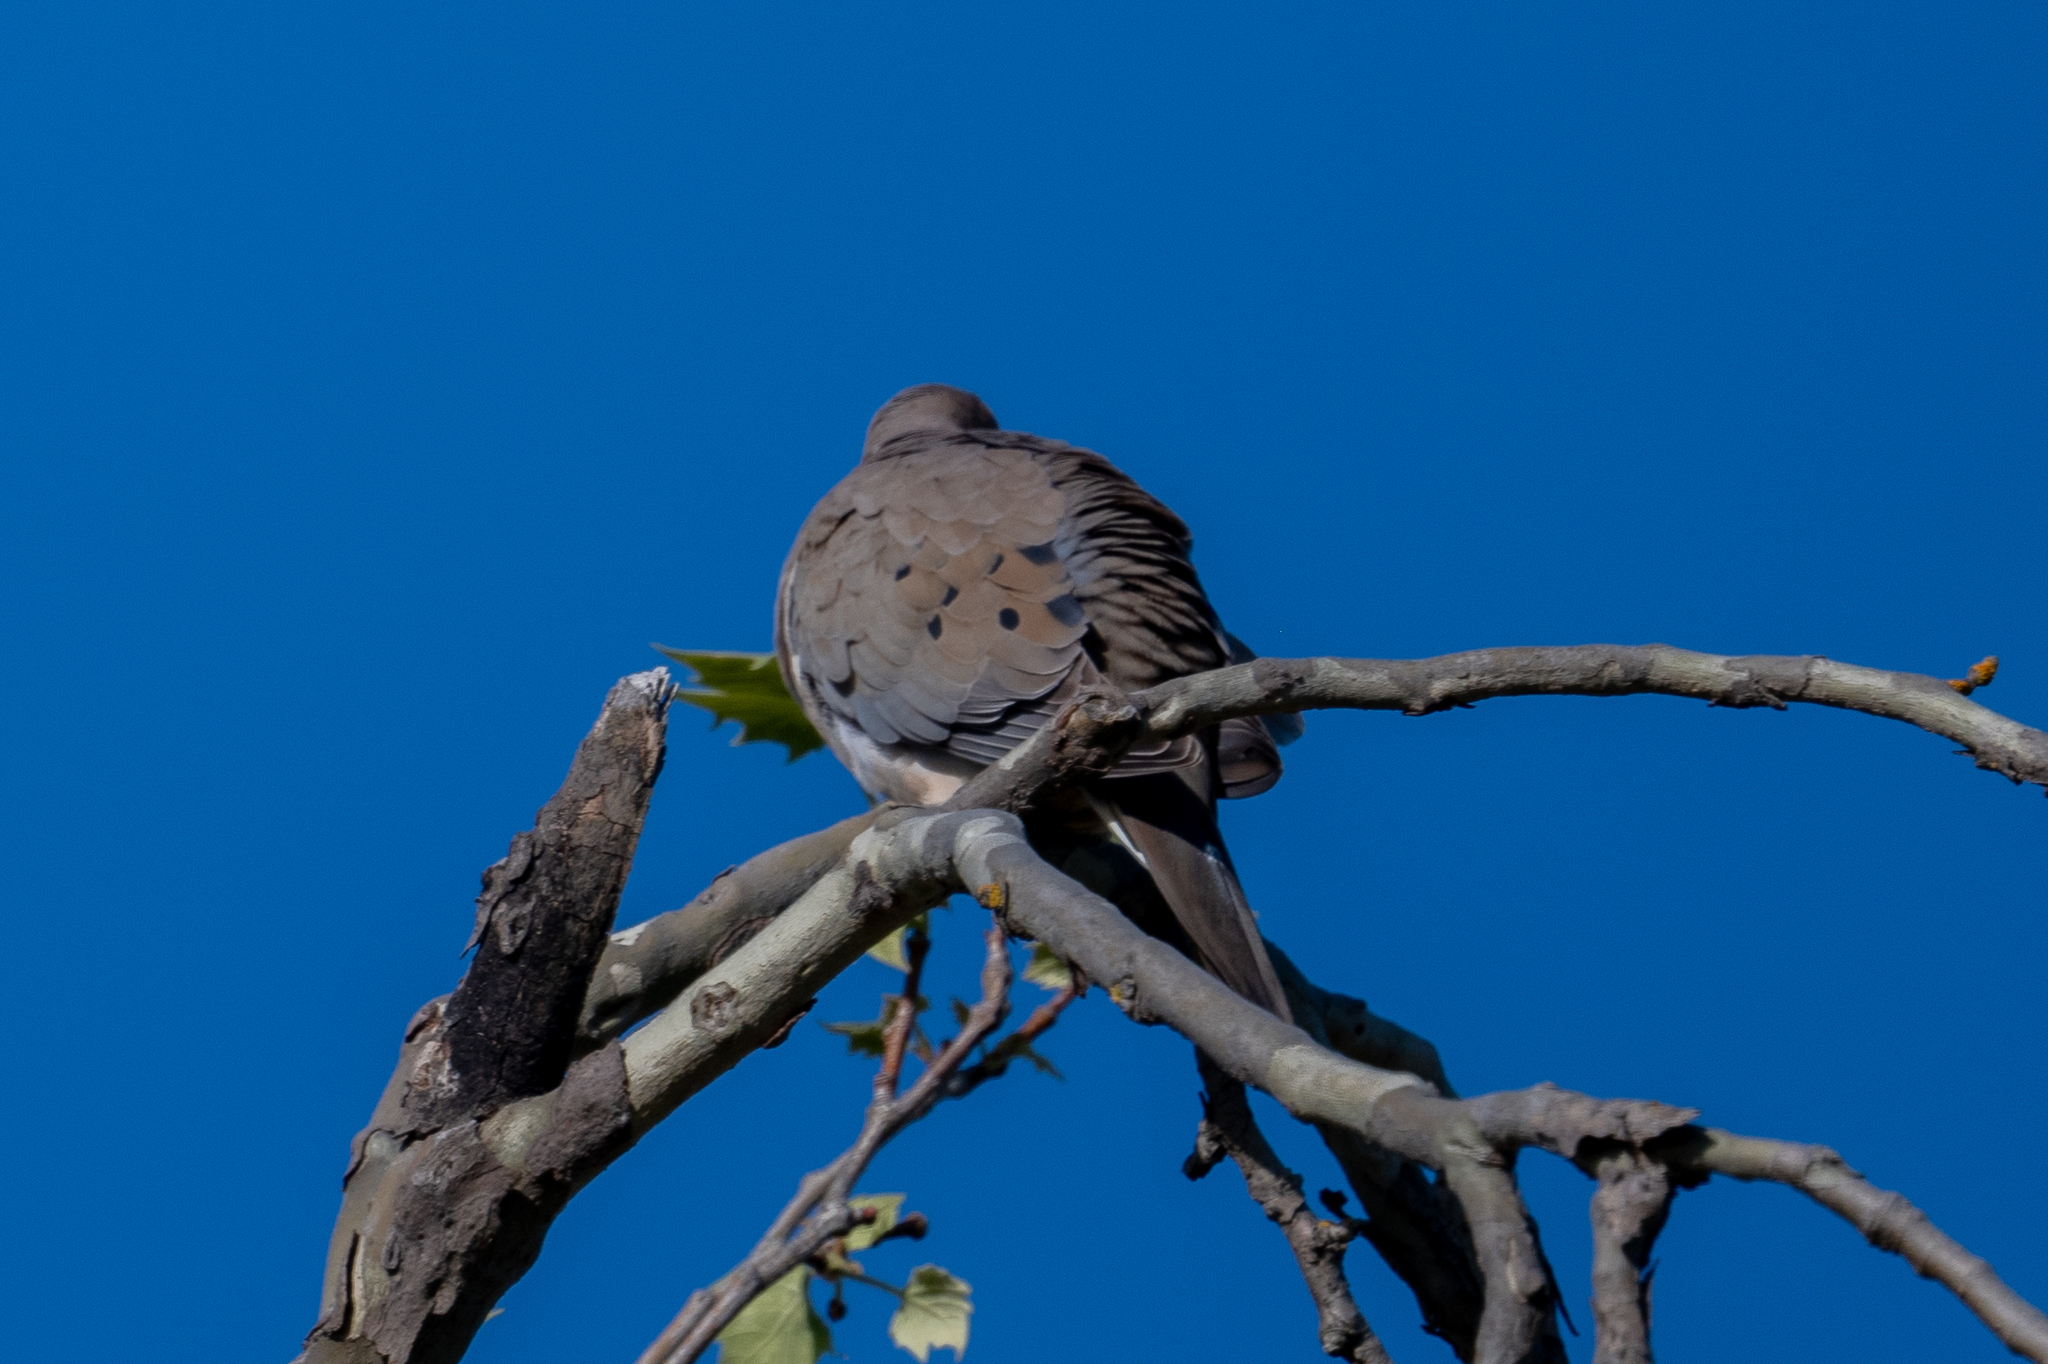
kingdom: Animalia
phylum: Chordata
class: Aves
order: Columbiformes
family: Columbidae
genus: Zenaida
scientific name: Zenaida macroura
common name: Mourning dove
